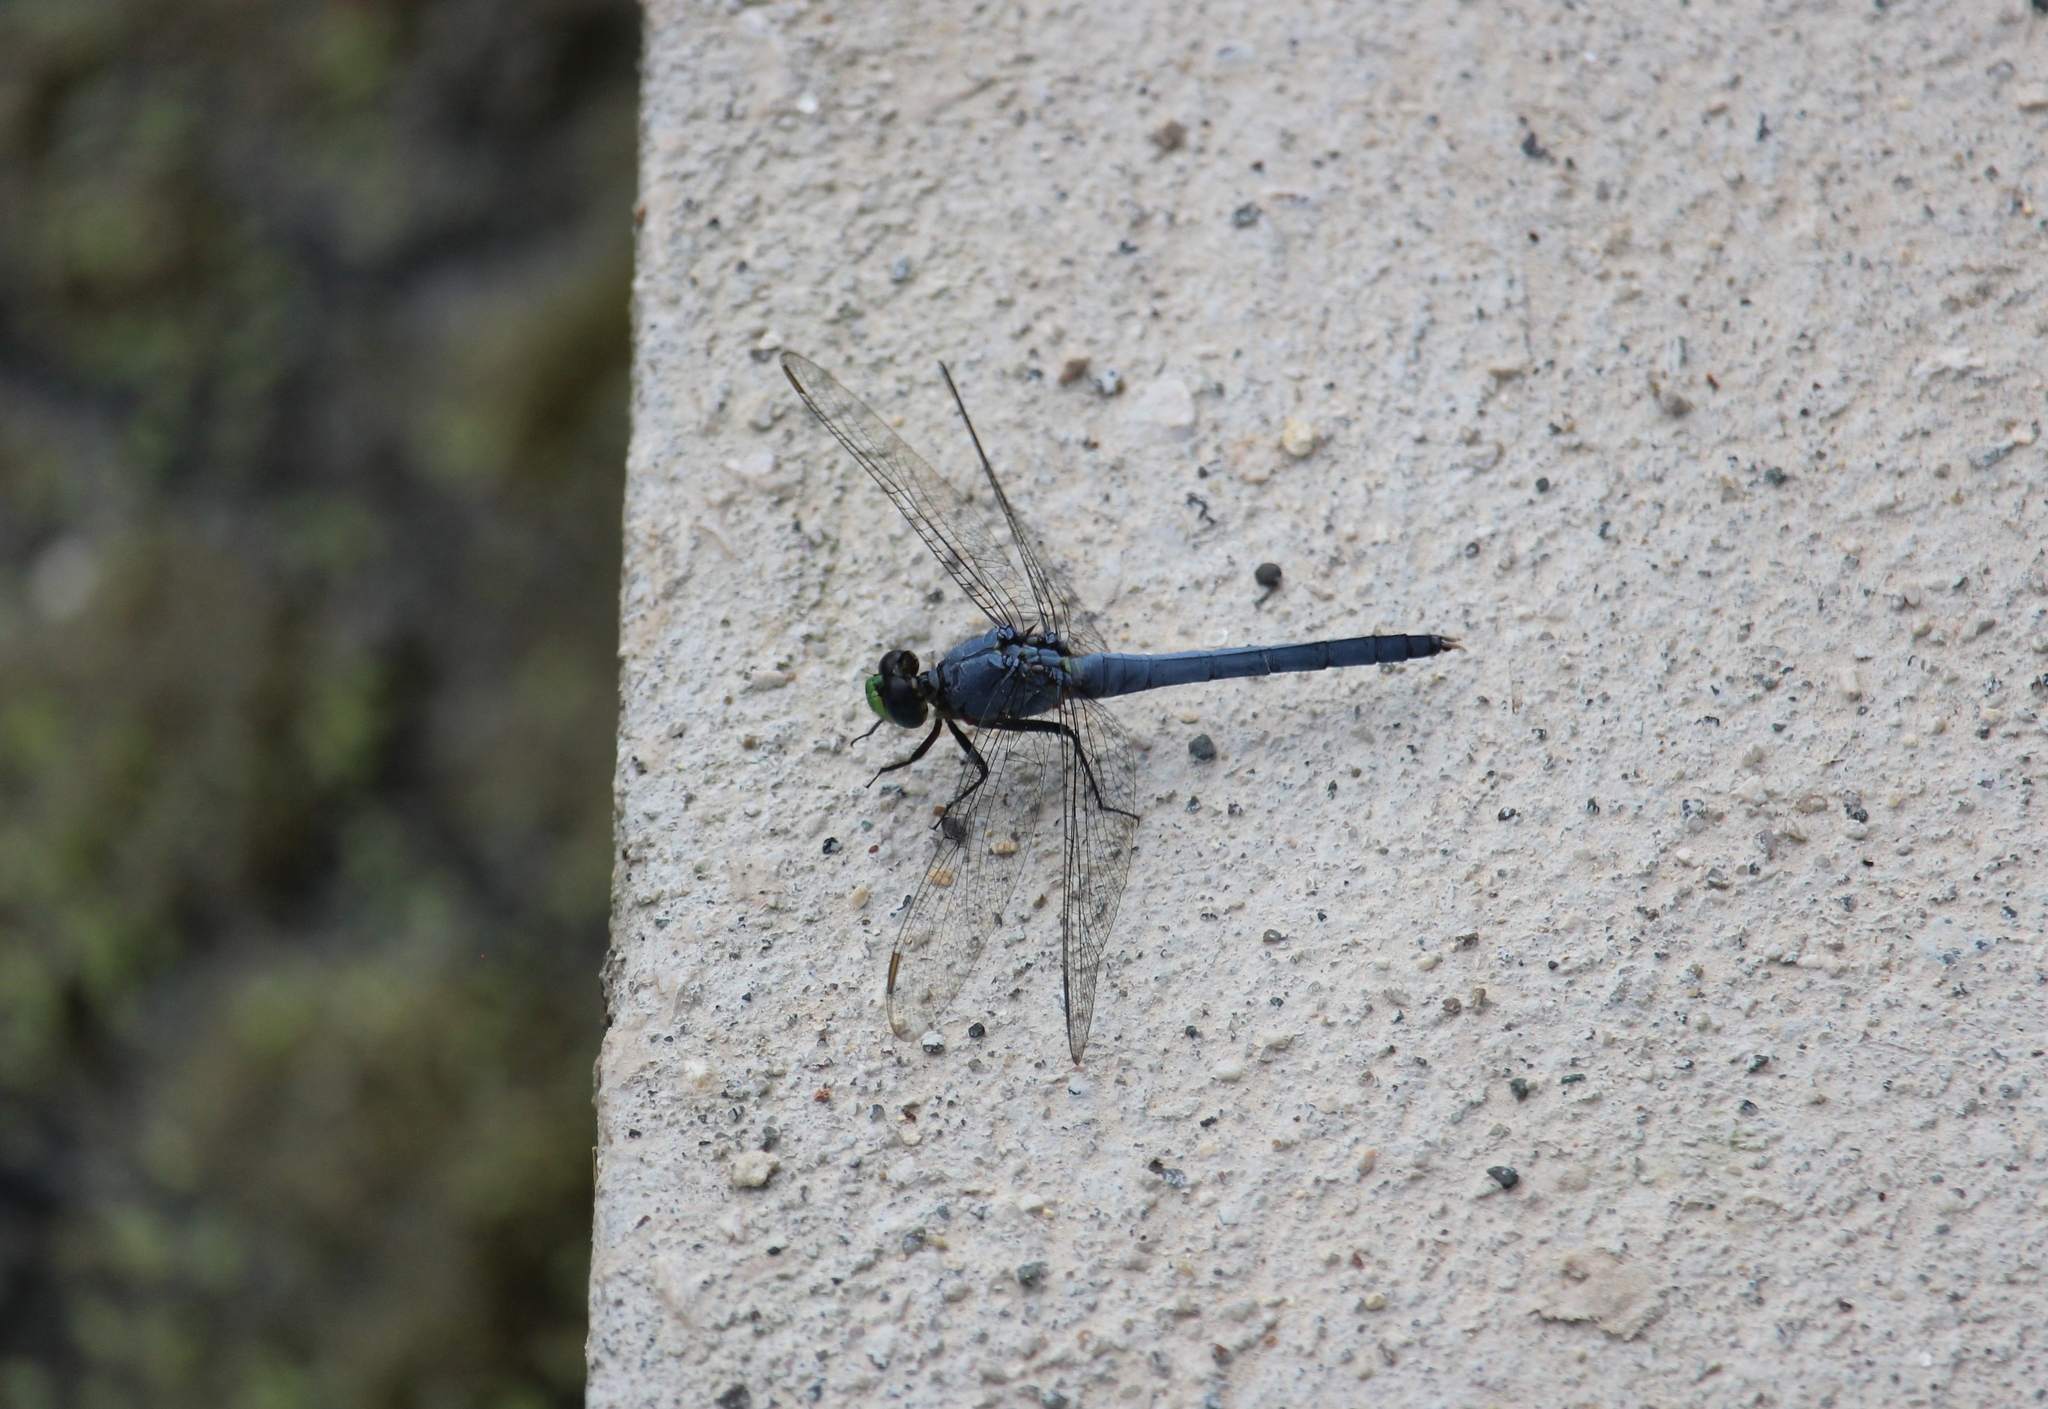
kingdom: Animalia
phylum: Arthropoda
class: Insecta
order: Odonata
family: Libellulidae
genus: Erythemis
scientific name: Erythemis simplicicollis
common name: Eastern pondhawk
